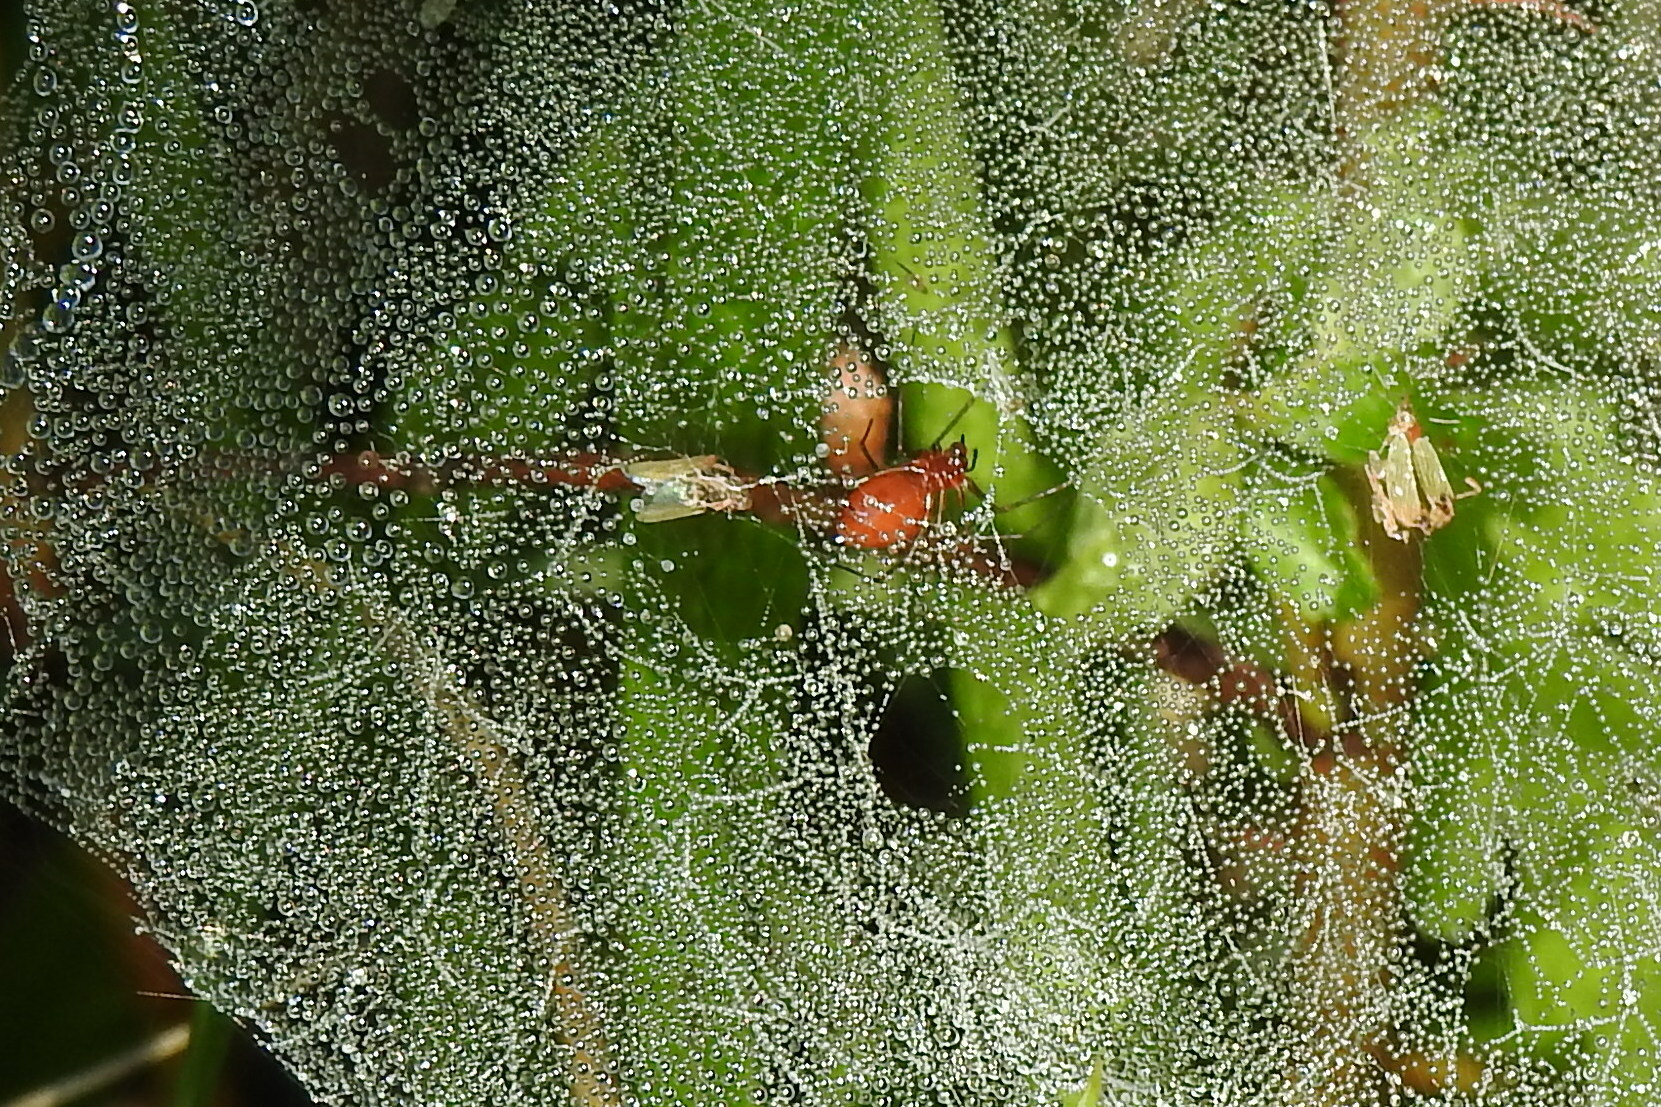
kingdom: Animalia
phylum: Arthropoda
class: Arachnida
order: Araneae
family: Linyphiidae
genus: Florinda
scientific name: Florinda coccinea
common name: Black-tailed red sheetweaver
